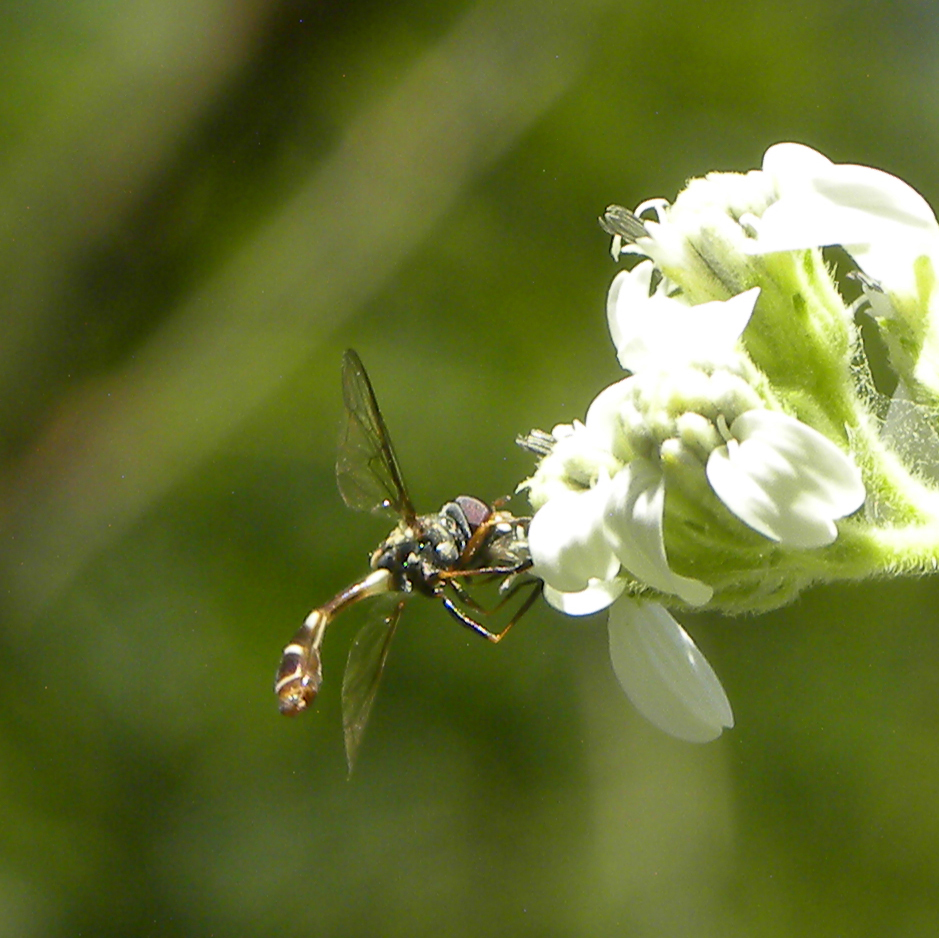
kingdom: Animalia
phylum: Arthropoda
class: Insecta
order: Diptera
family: Syrphidae
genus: Dioprosopa
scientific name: Dioprosopa clavatus
